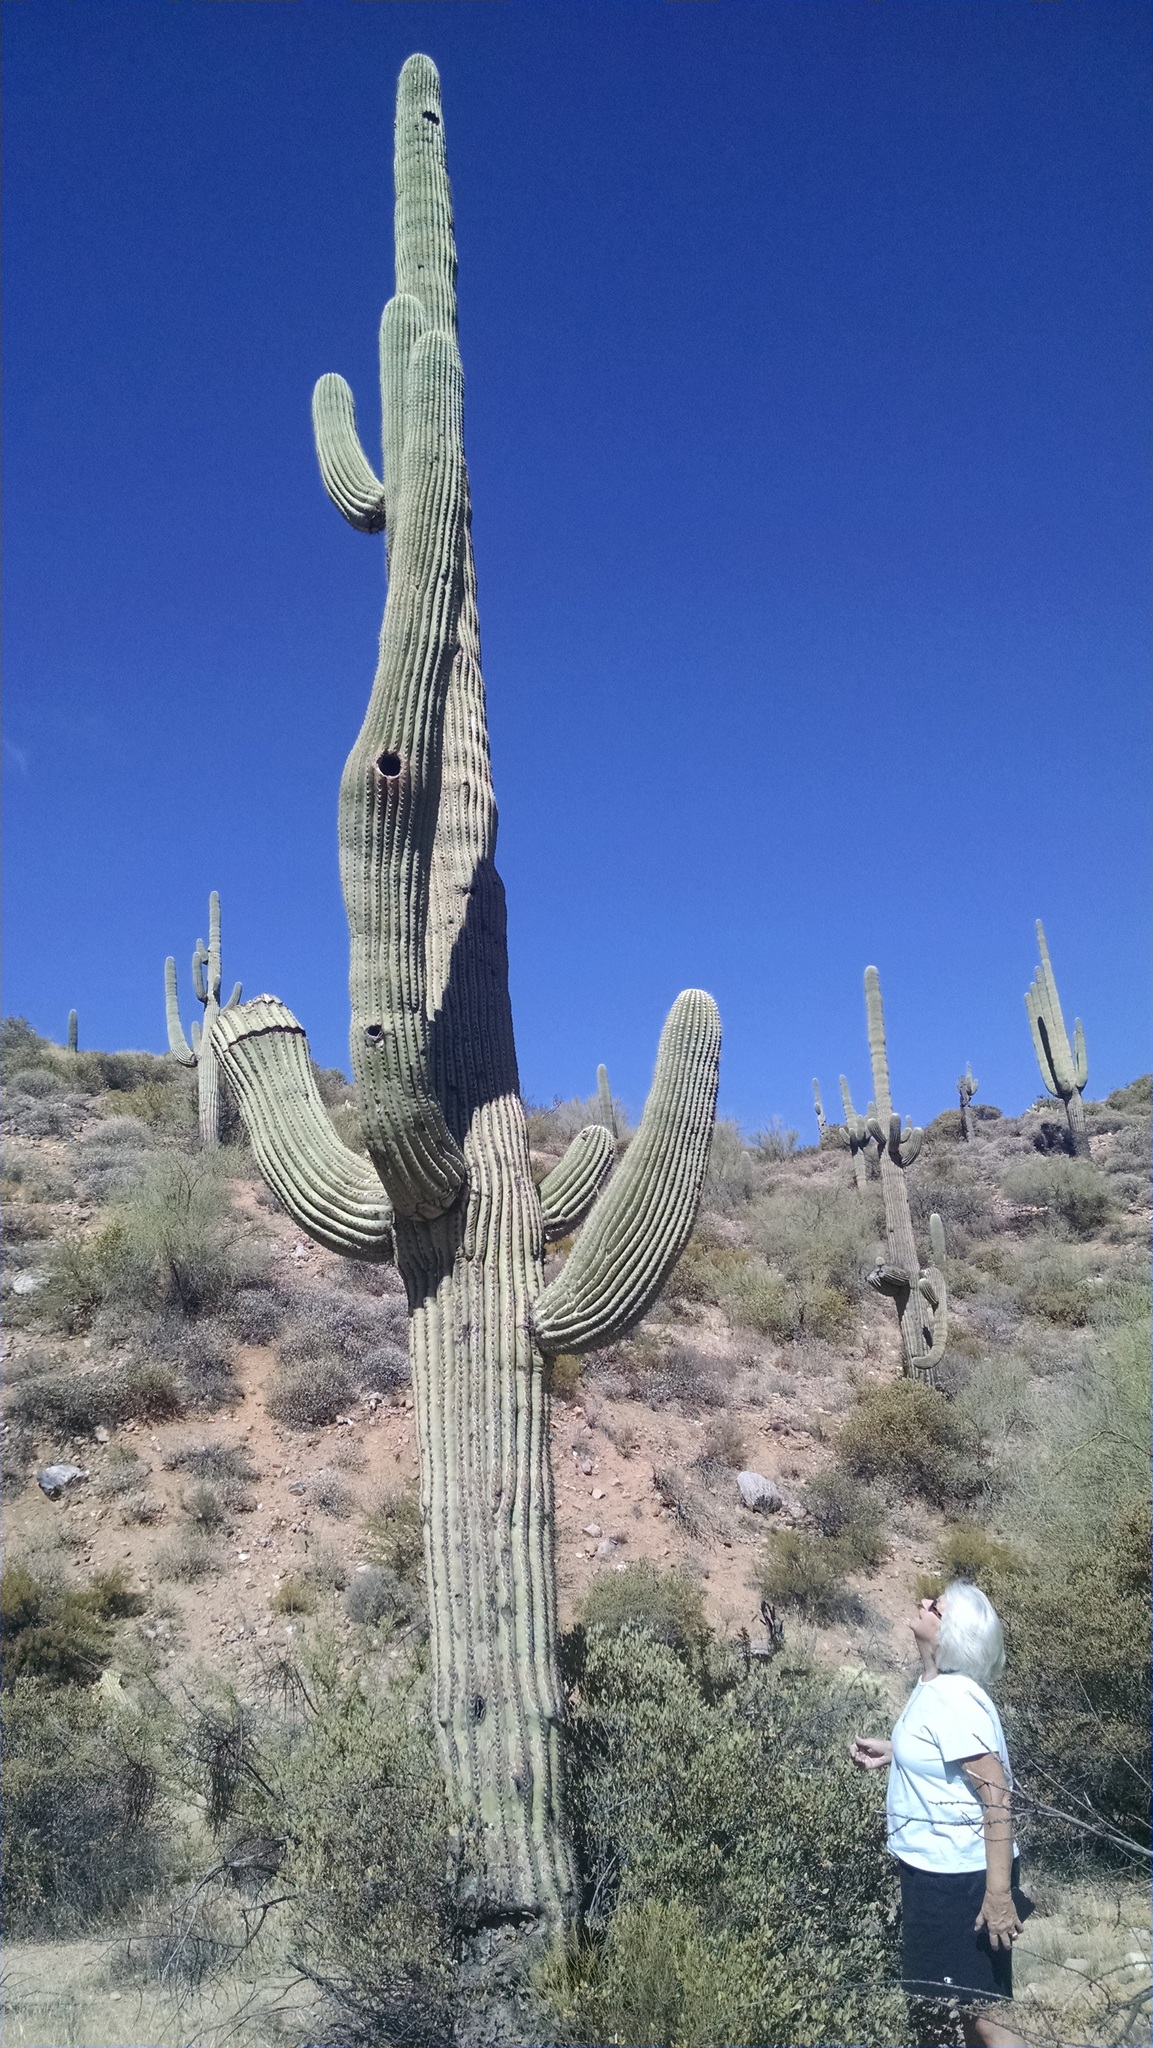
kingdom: Plantae
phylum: Tracheophyta
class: Magnoliopsida
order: Caryophyllales
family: Cactaceae
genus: Carnegiea
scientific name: Carnegiea gigantea
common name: Saguaro
